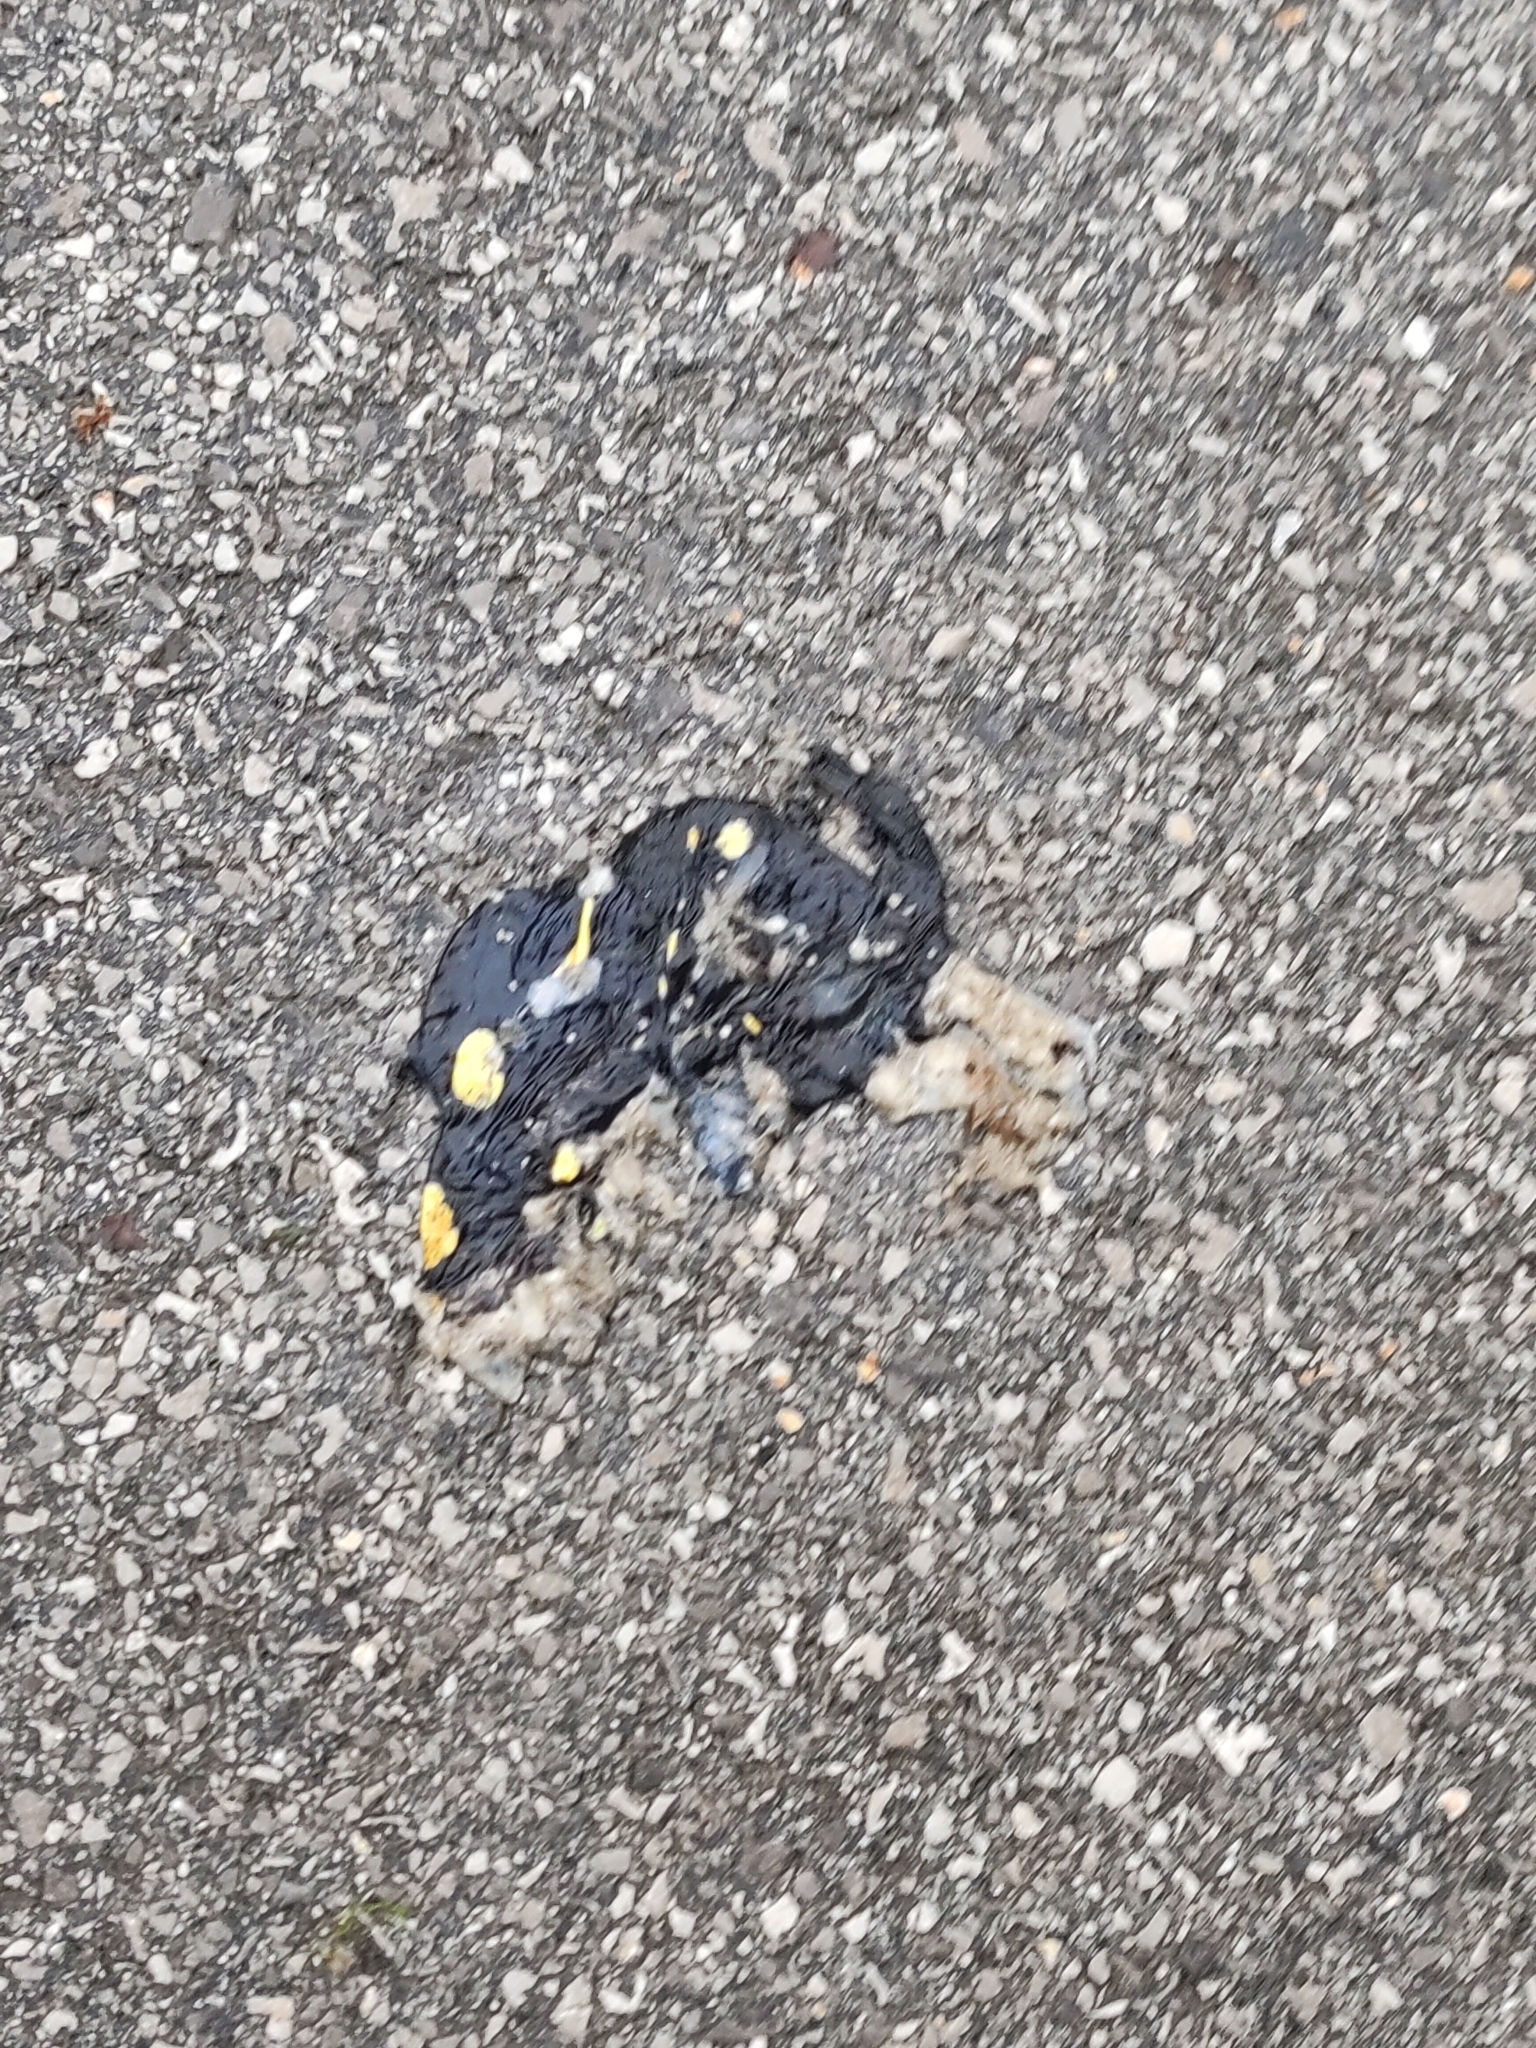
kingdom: Animalia
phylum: Chordata
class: Amphibia
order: Caudata
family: Salamandridae
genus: Salamandra
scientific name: Salamandra salamandra
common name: Fire salamander
